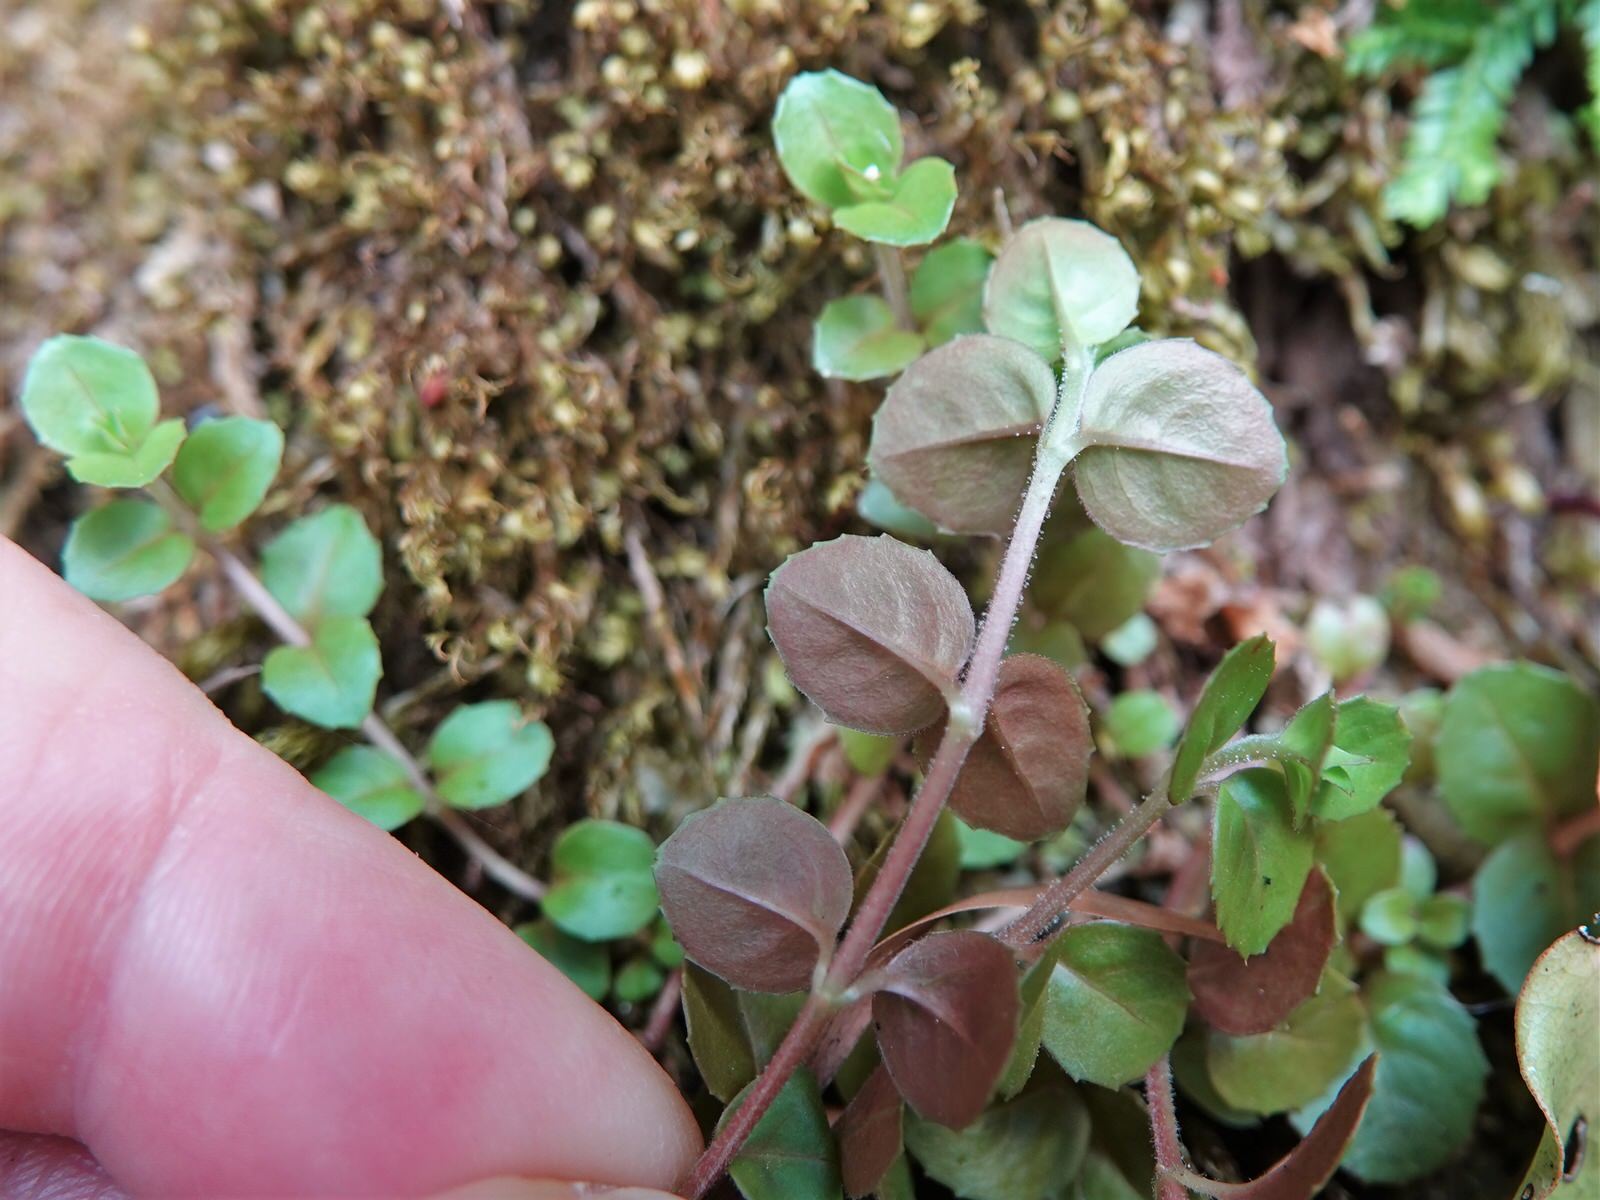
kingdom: Plantae
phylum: Tracheophyta
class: Magnoliopsida
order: Myrtales
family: Onagraceae
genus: Epilobium
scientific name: Epilobium rotundifolium
